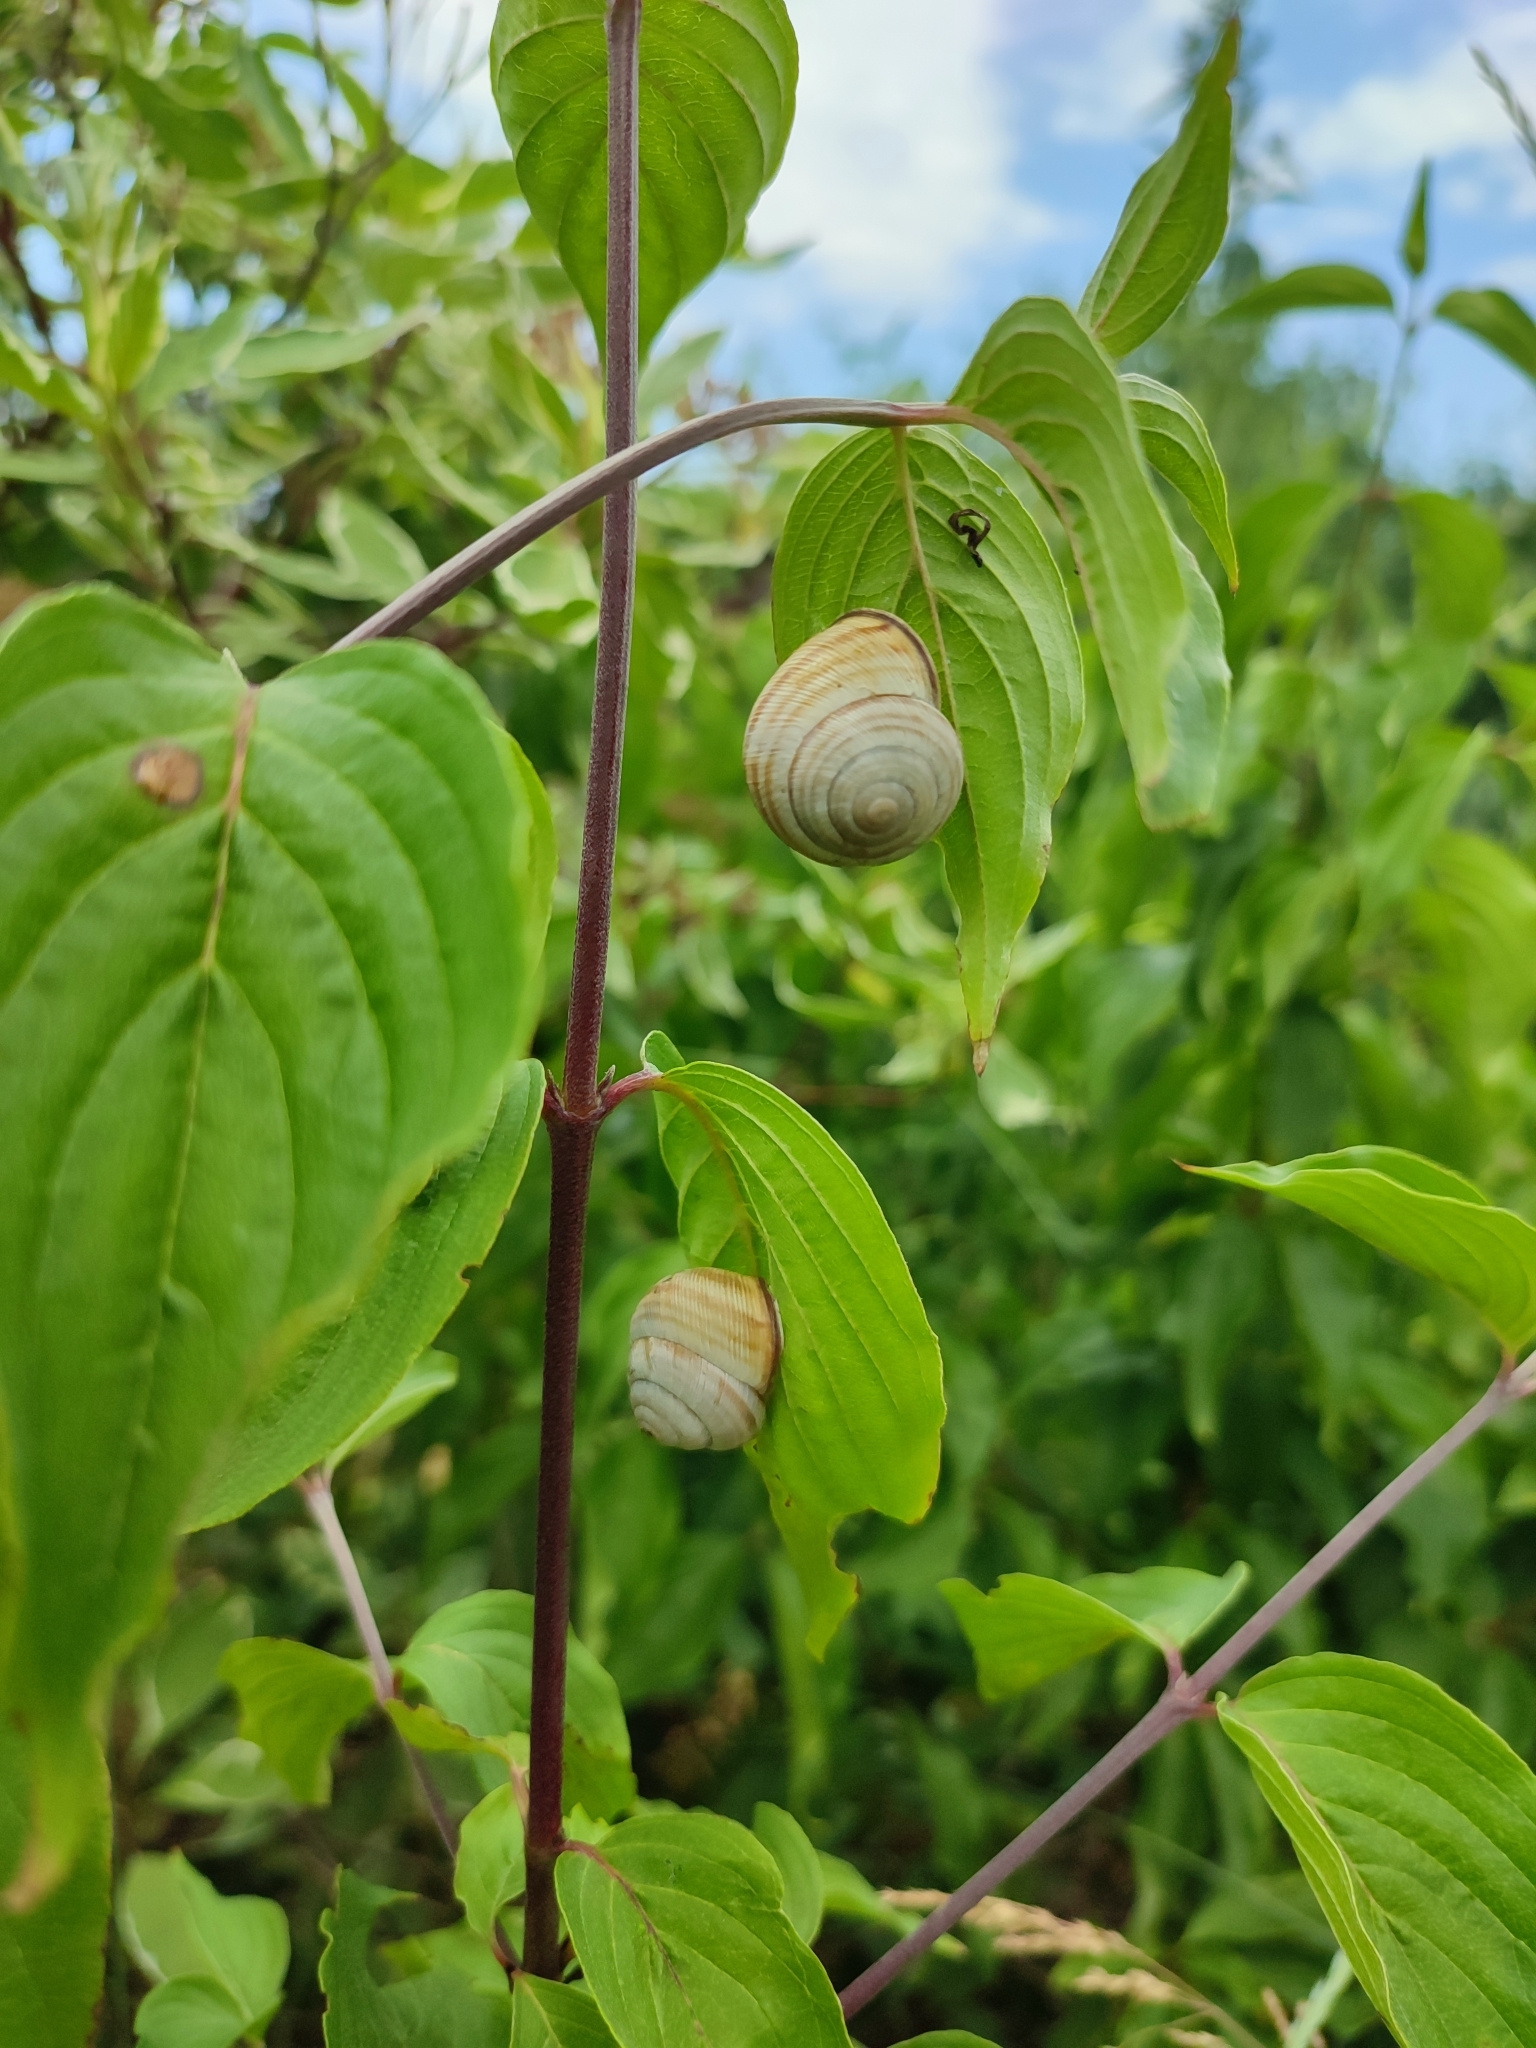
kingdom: Animalia
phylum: Mollusca
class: Gastropoda
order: Stylommatophora
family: Helicidae
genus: Caucasotachea
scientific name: Caucasotachea vindobonensis
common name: European helicid land snail
